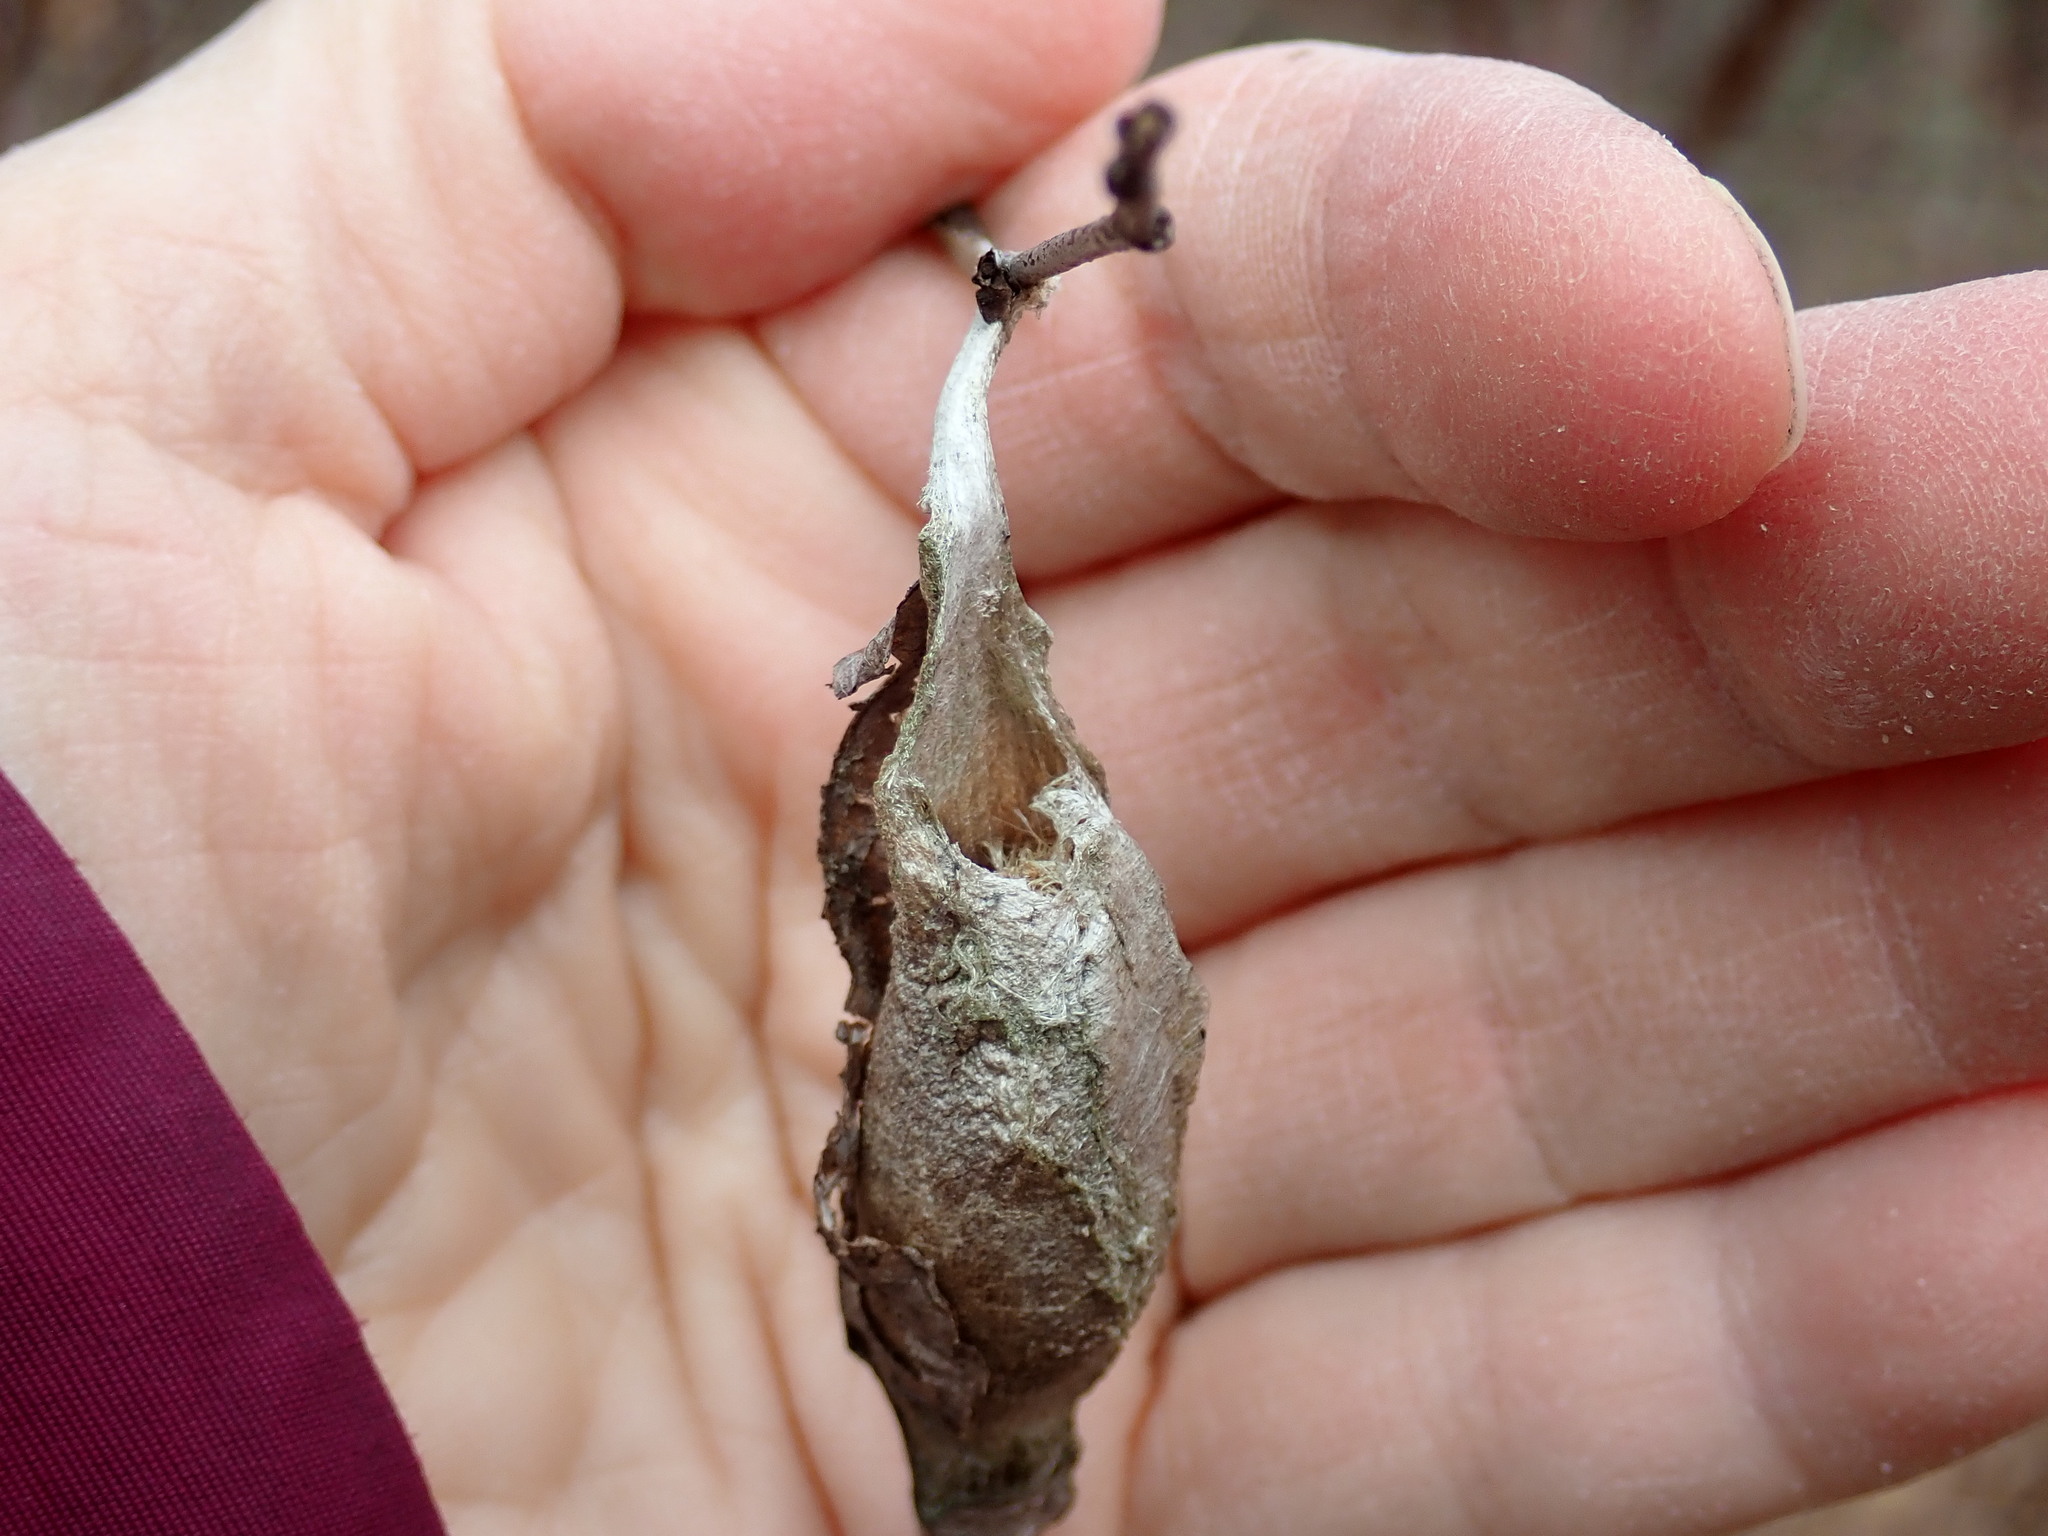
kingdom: Animalia
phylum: Arthropoda
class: Insecta
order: Lepidoptera
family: Saturniidae
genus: Callosamia
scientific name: Callosamia promethea
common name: Promethea silkmoth
